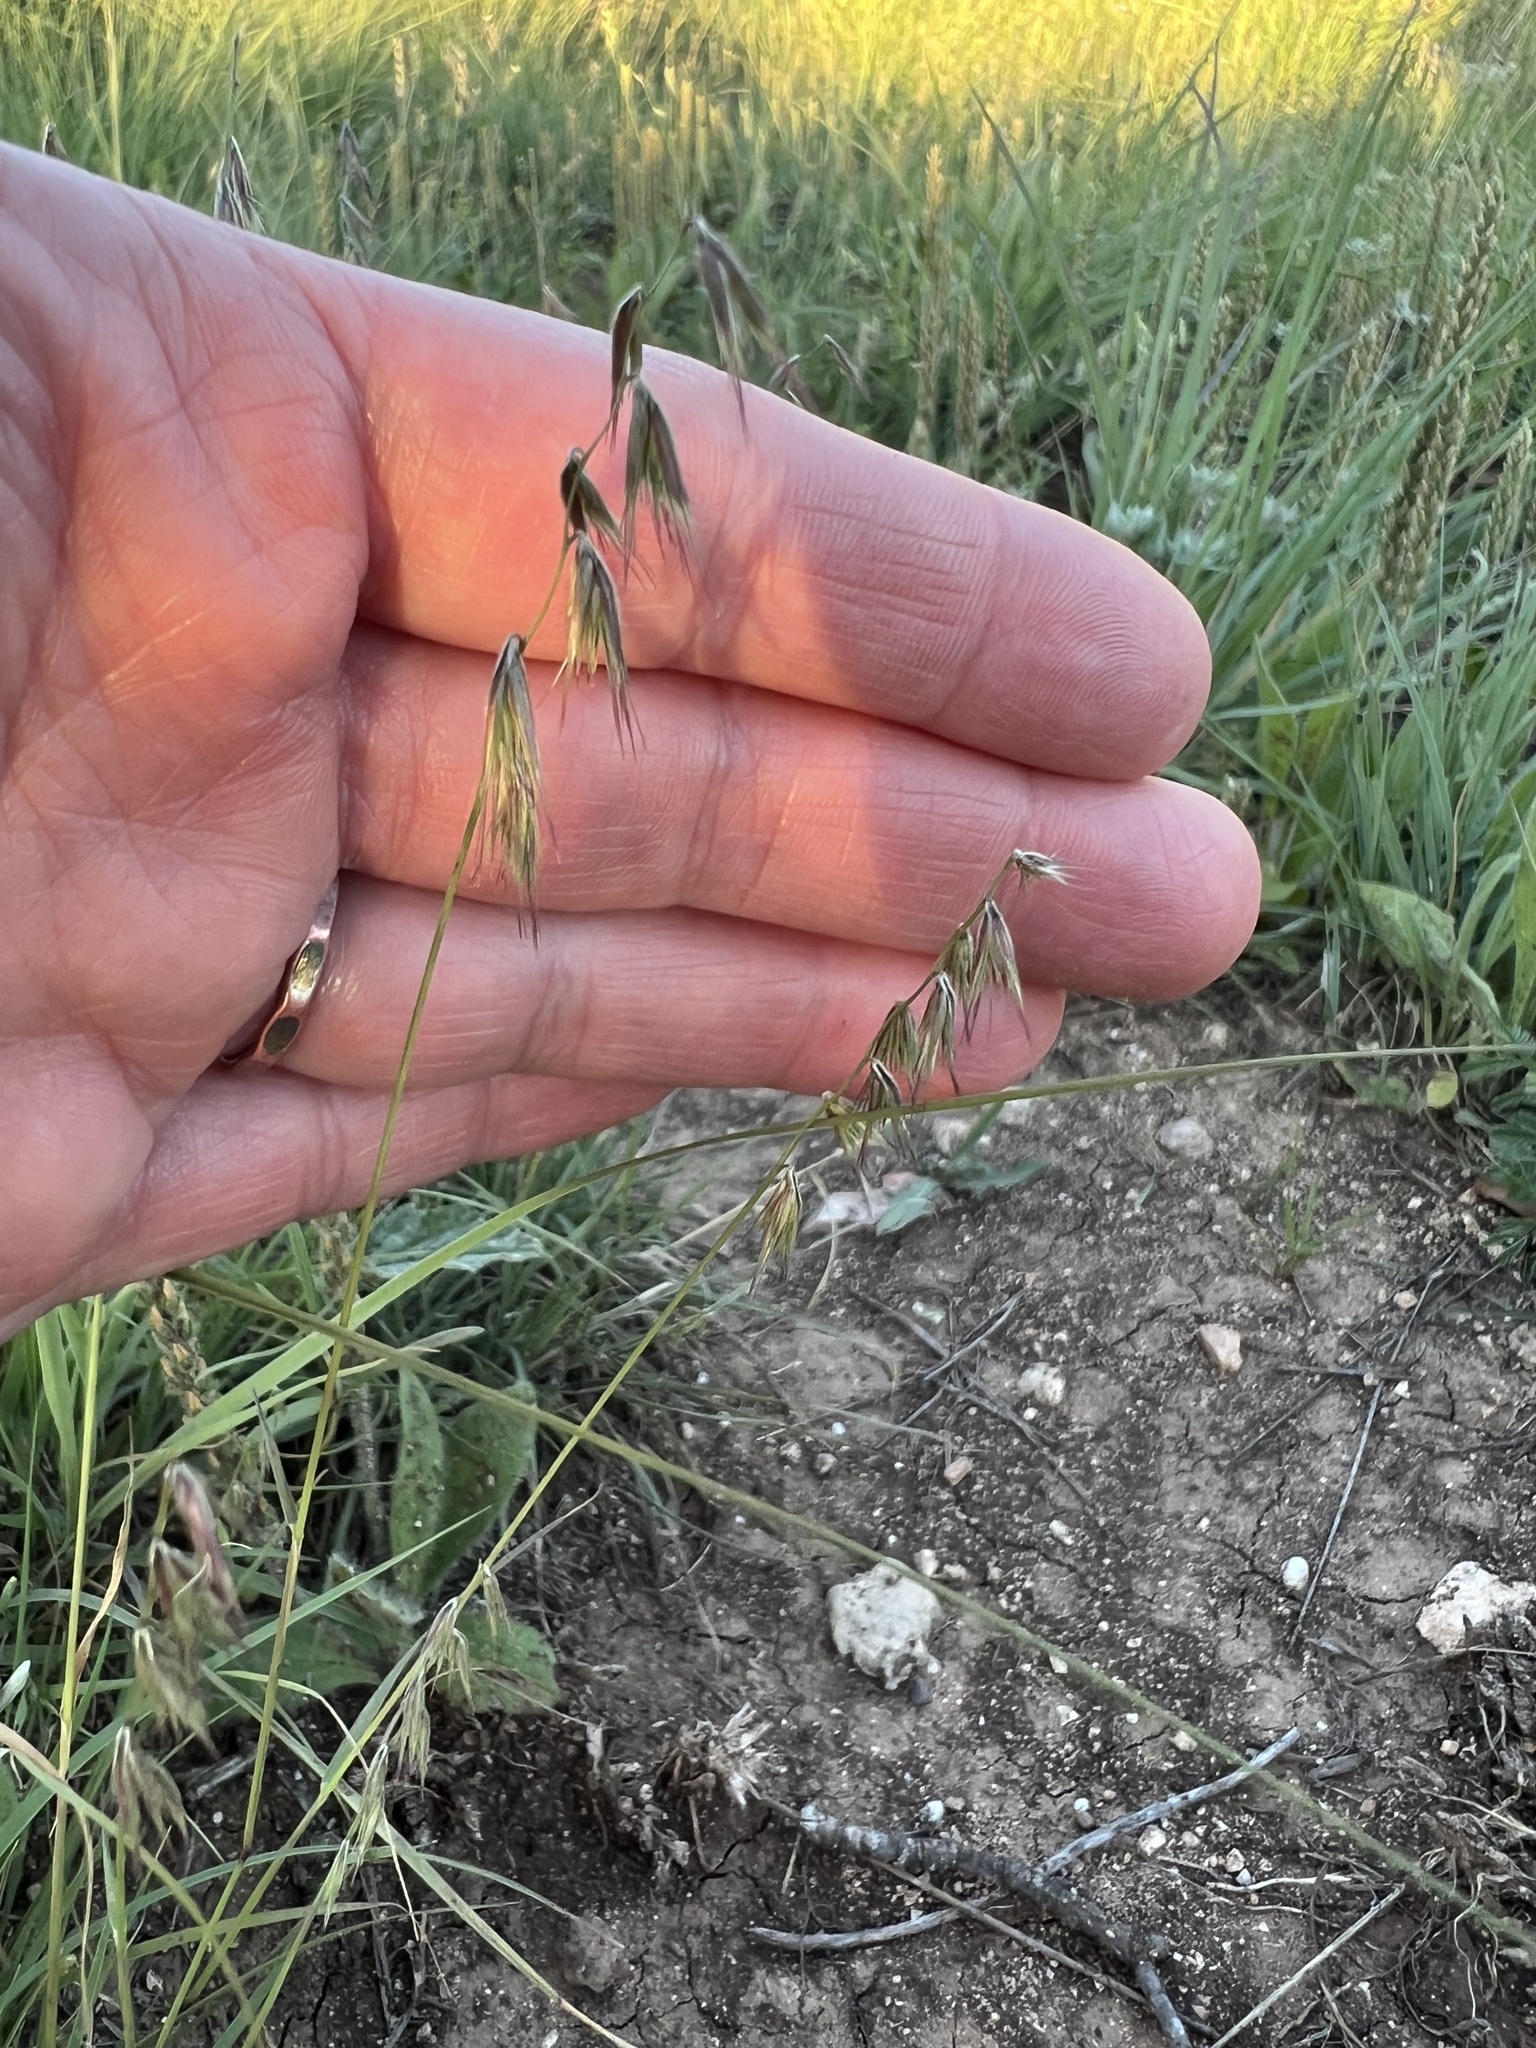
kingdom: Plantae
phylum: Tracheophyta
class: Liliopsida
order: Poales
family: Poaceae
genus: Bouteloua
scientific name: Bouteloua rigidiseta
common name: Texas grama
